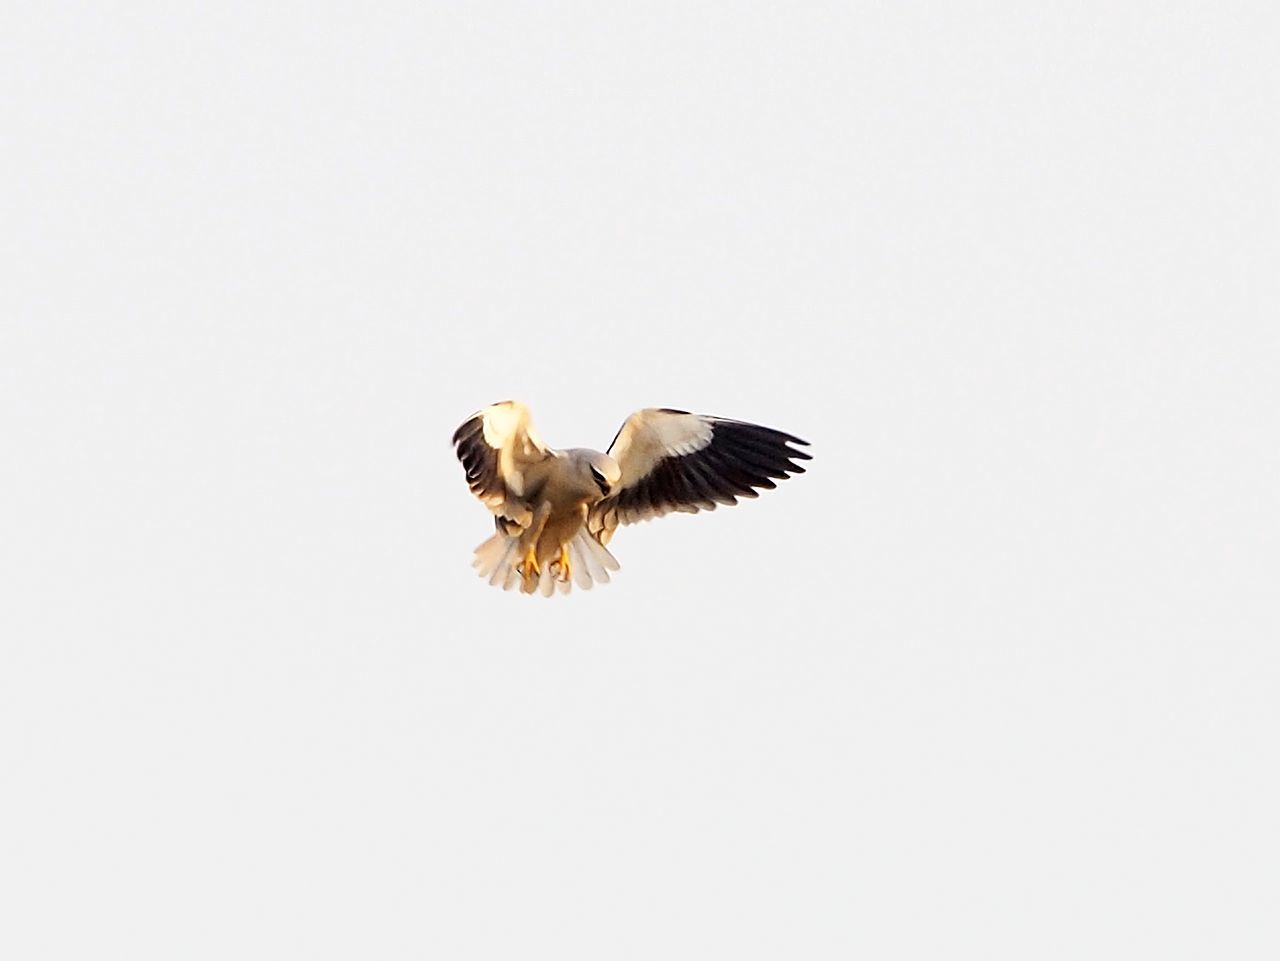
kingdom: Animalia
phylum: Chordata
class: Aves
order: Accipitriformes
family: Accipitridae
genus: Elanus
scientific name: Elanus caeruleus
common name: Black-winged kite
